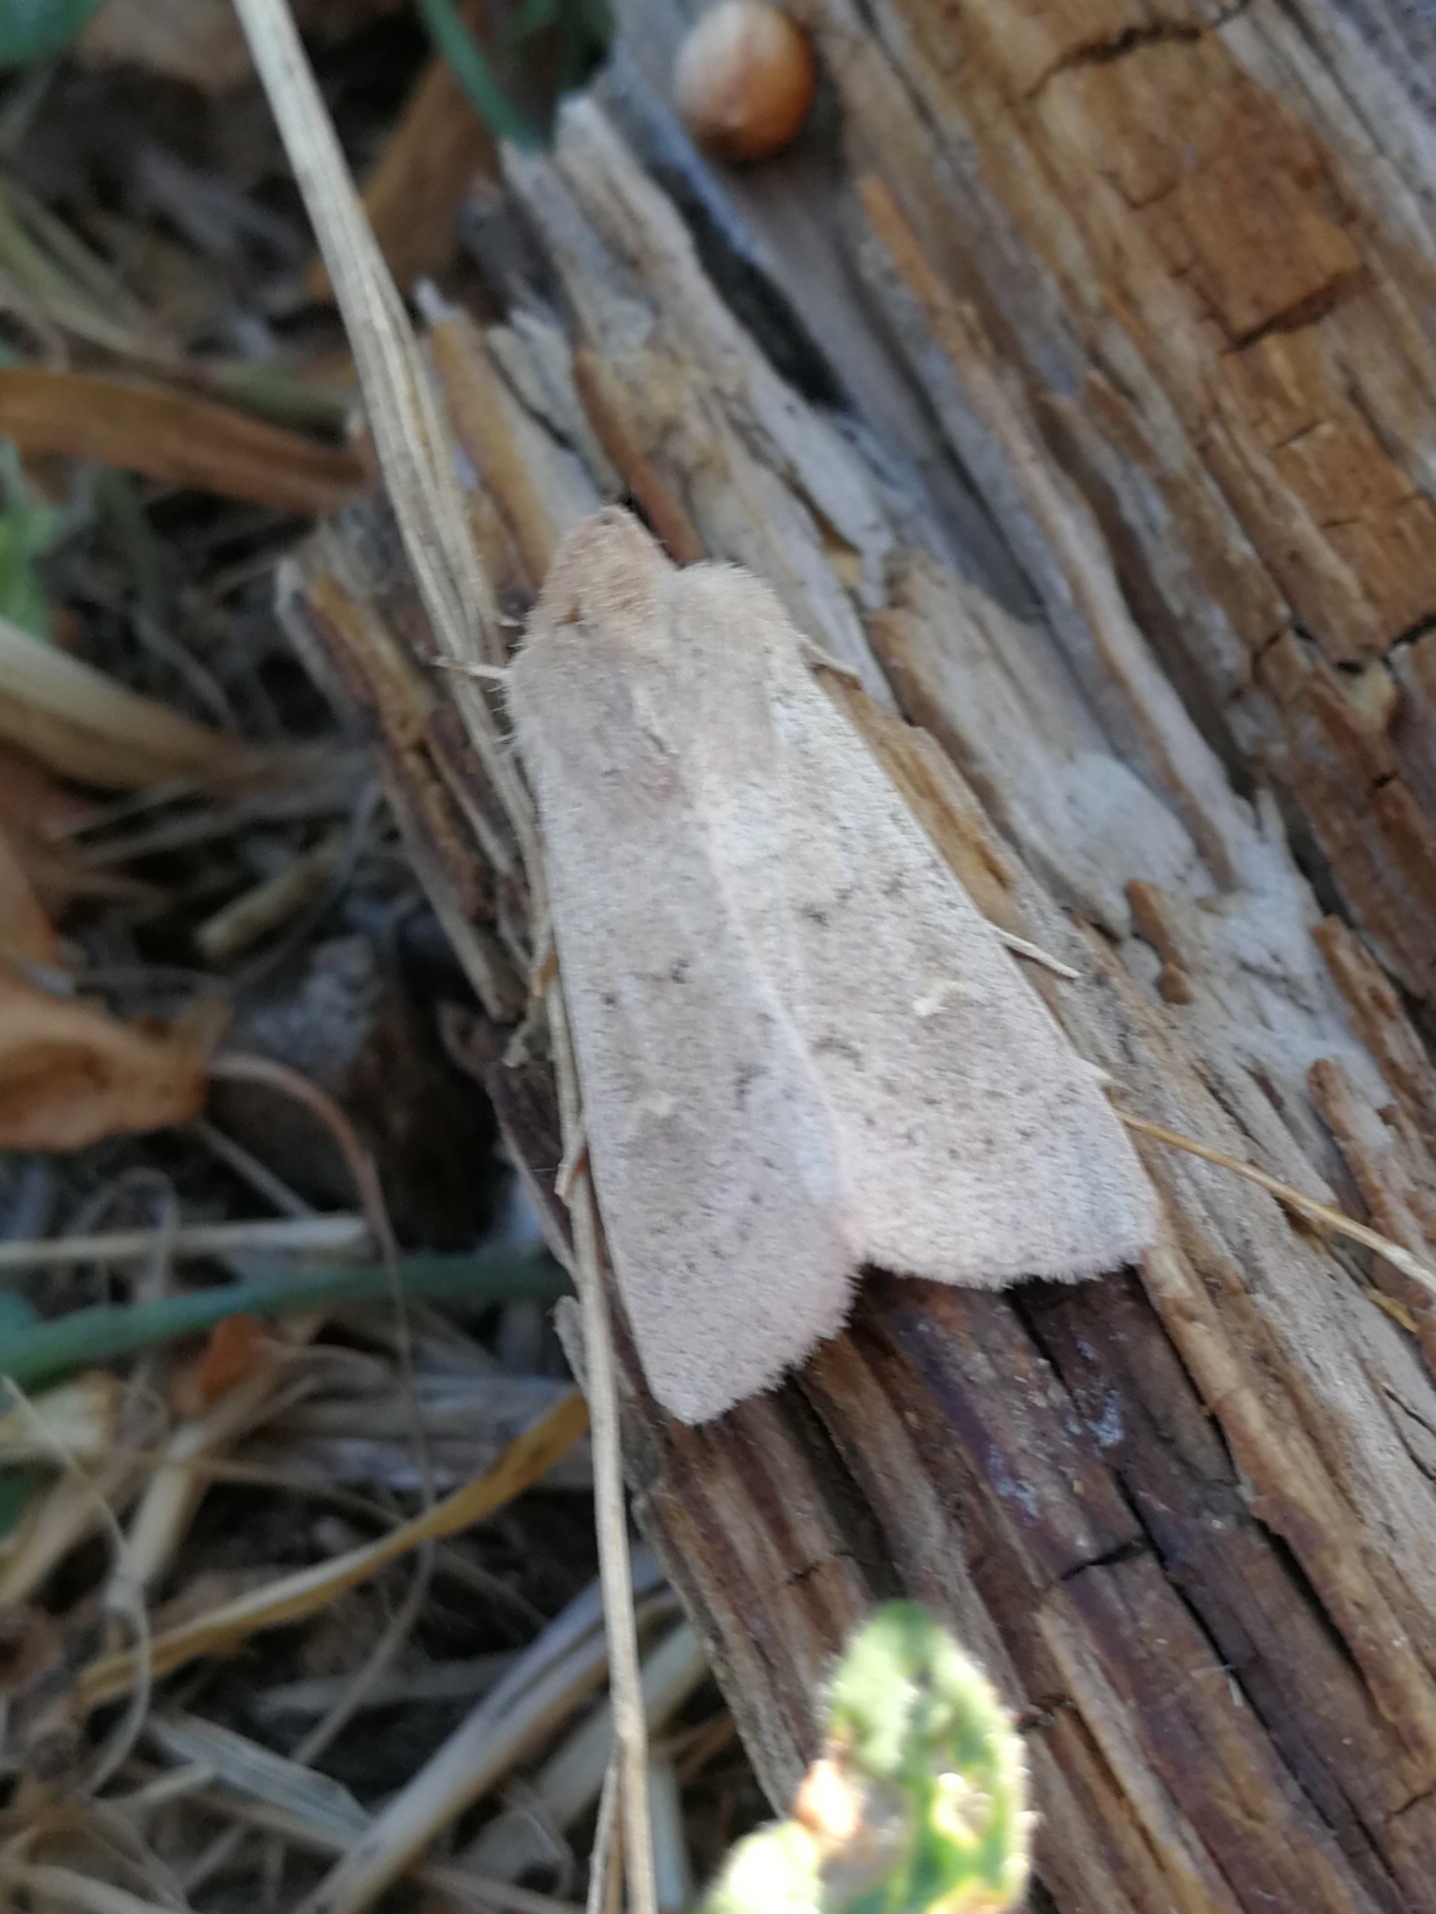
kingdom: Animalia
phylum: Arthropoda
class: Insecta
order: Lepidoptera
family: Noctuidae
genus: Mythimna
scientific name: Mythimna ferrago
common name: Clay
